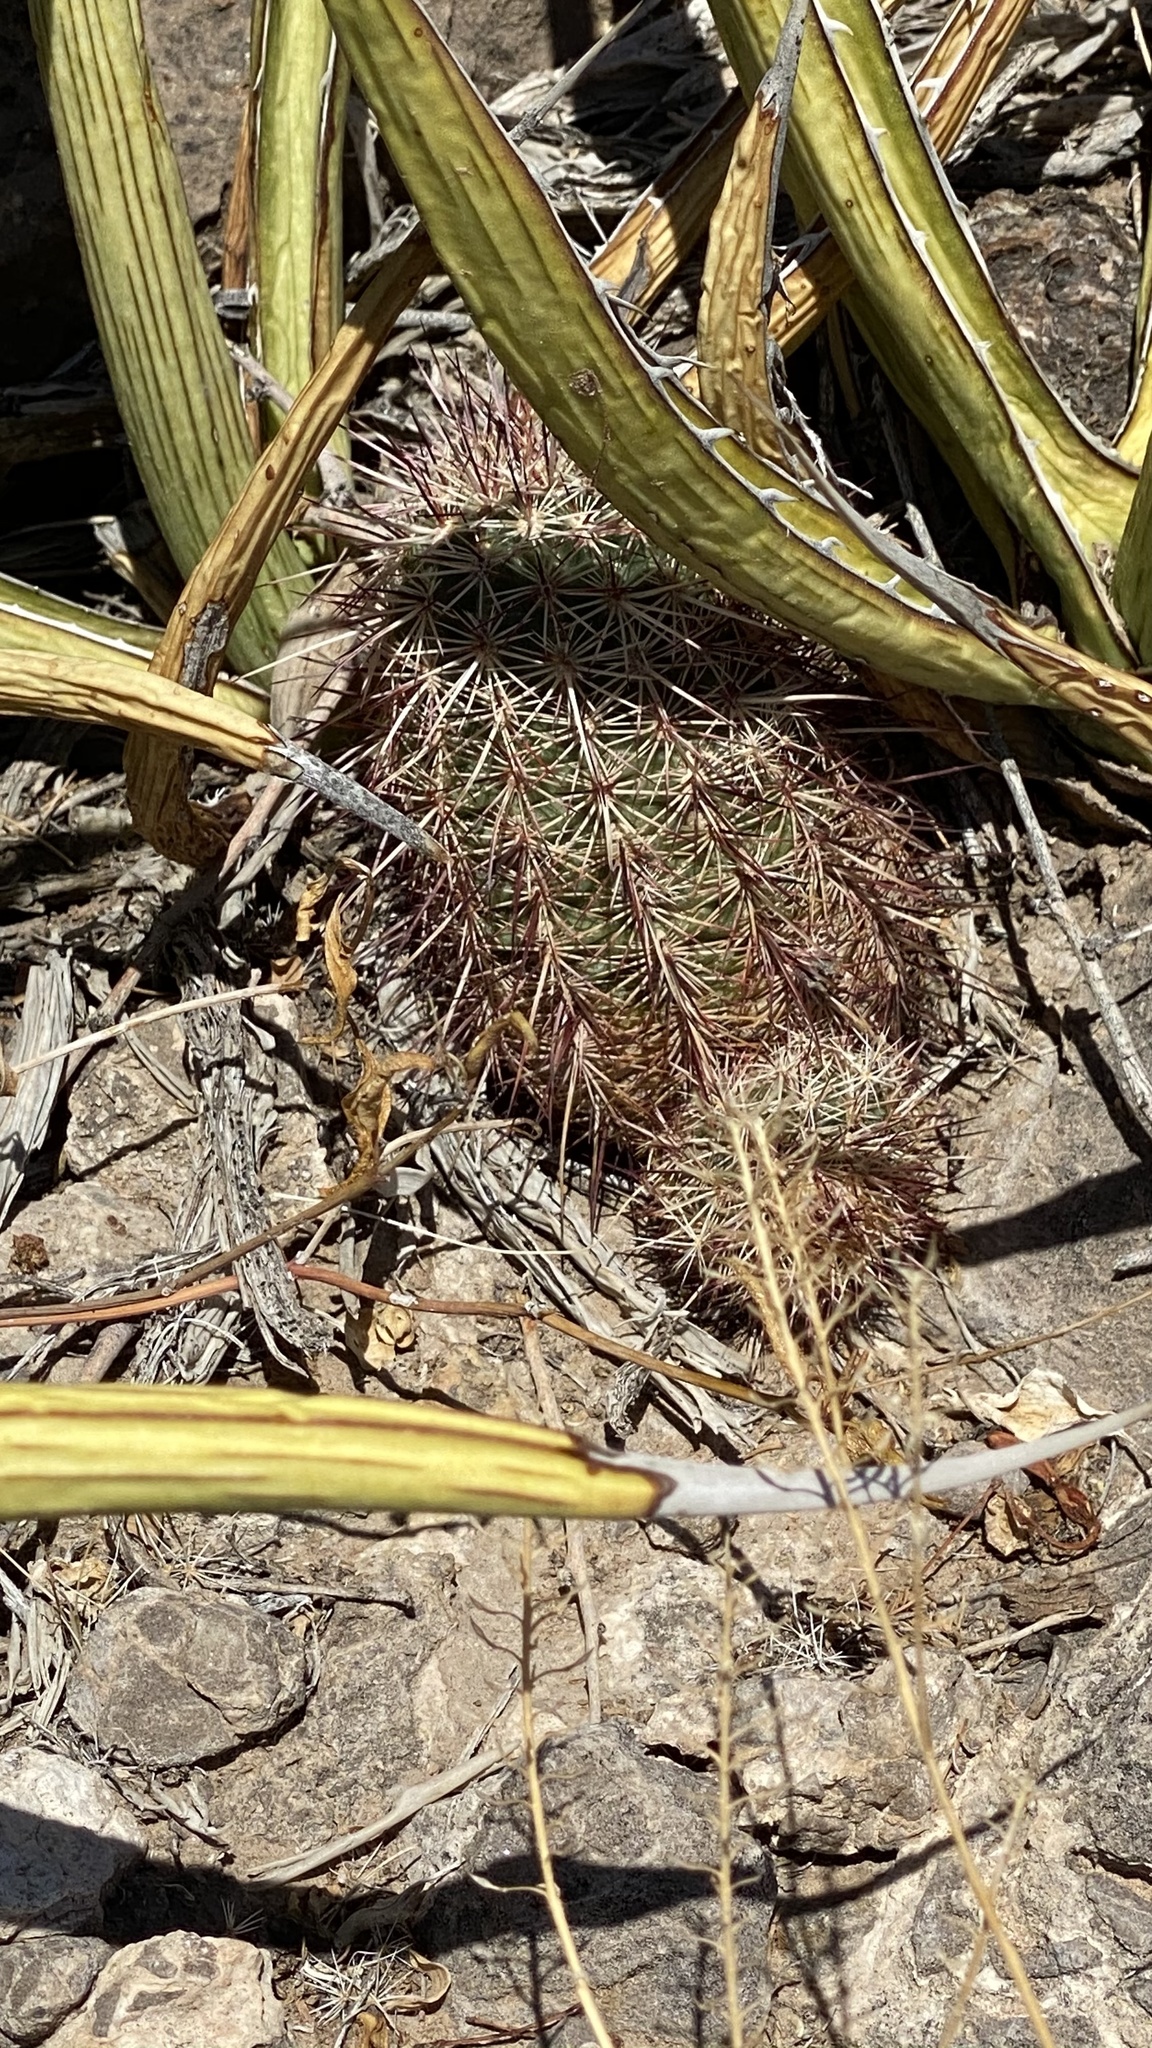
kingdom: Plantae
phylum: Tracheophyta
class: Magnoliopsida
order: Caryophyllales
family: Cactaceae
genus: Echinocereus
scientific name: Echinocereus viridiflorus
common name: Nylon hedgehog cactus
